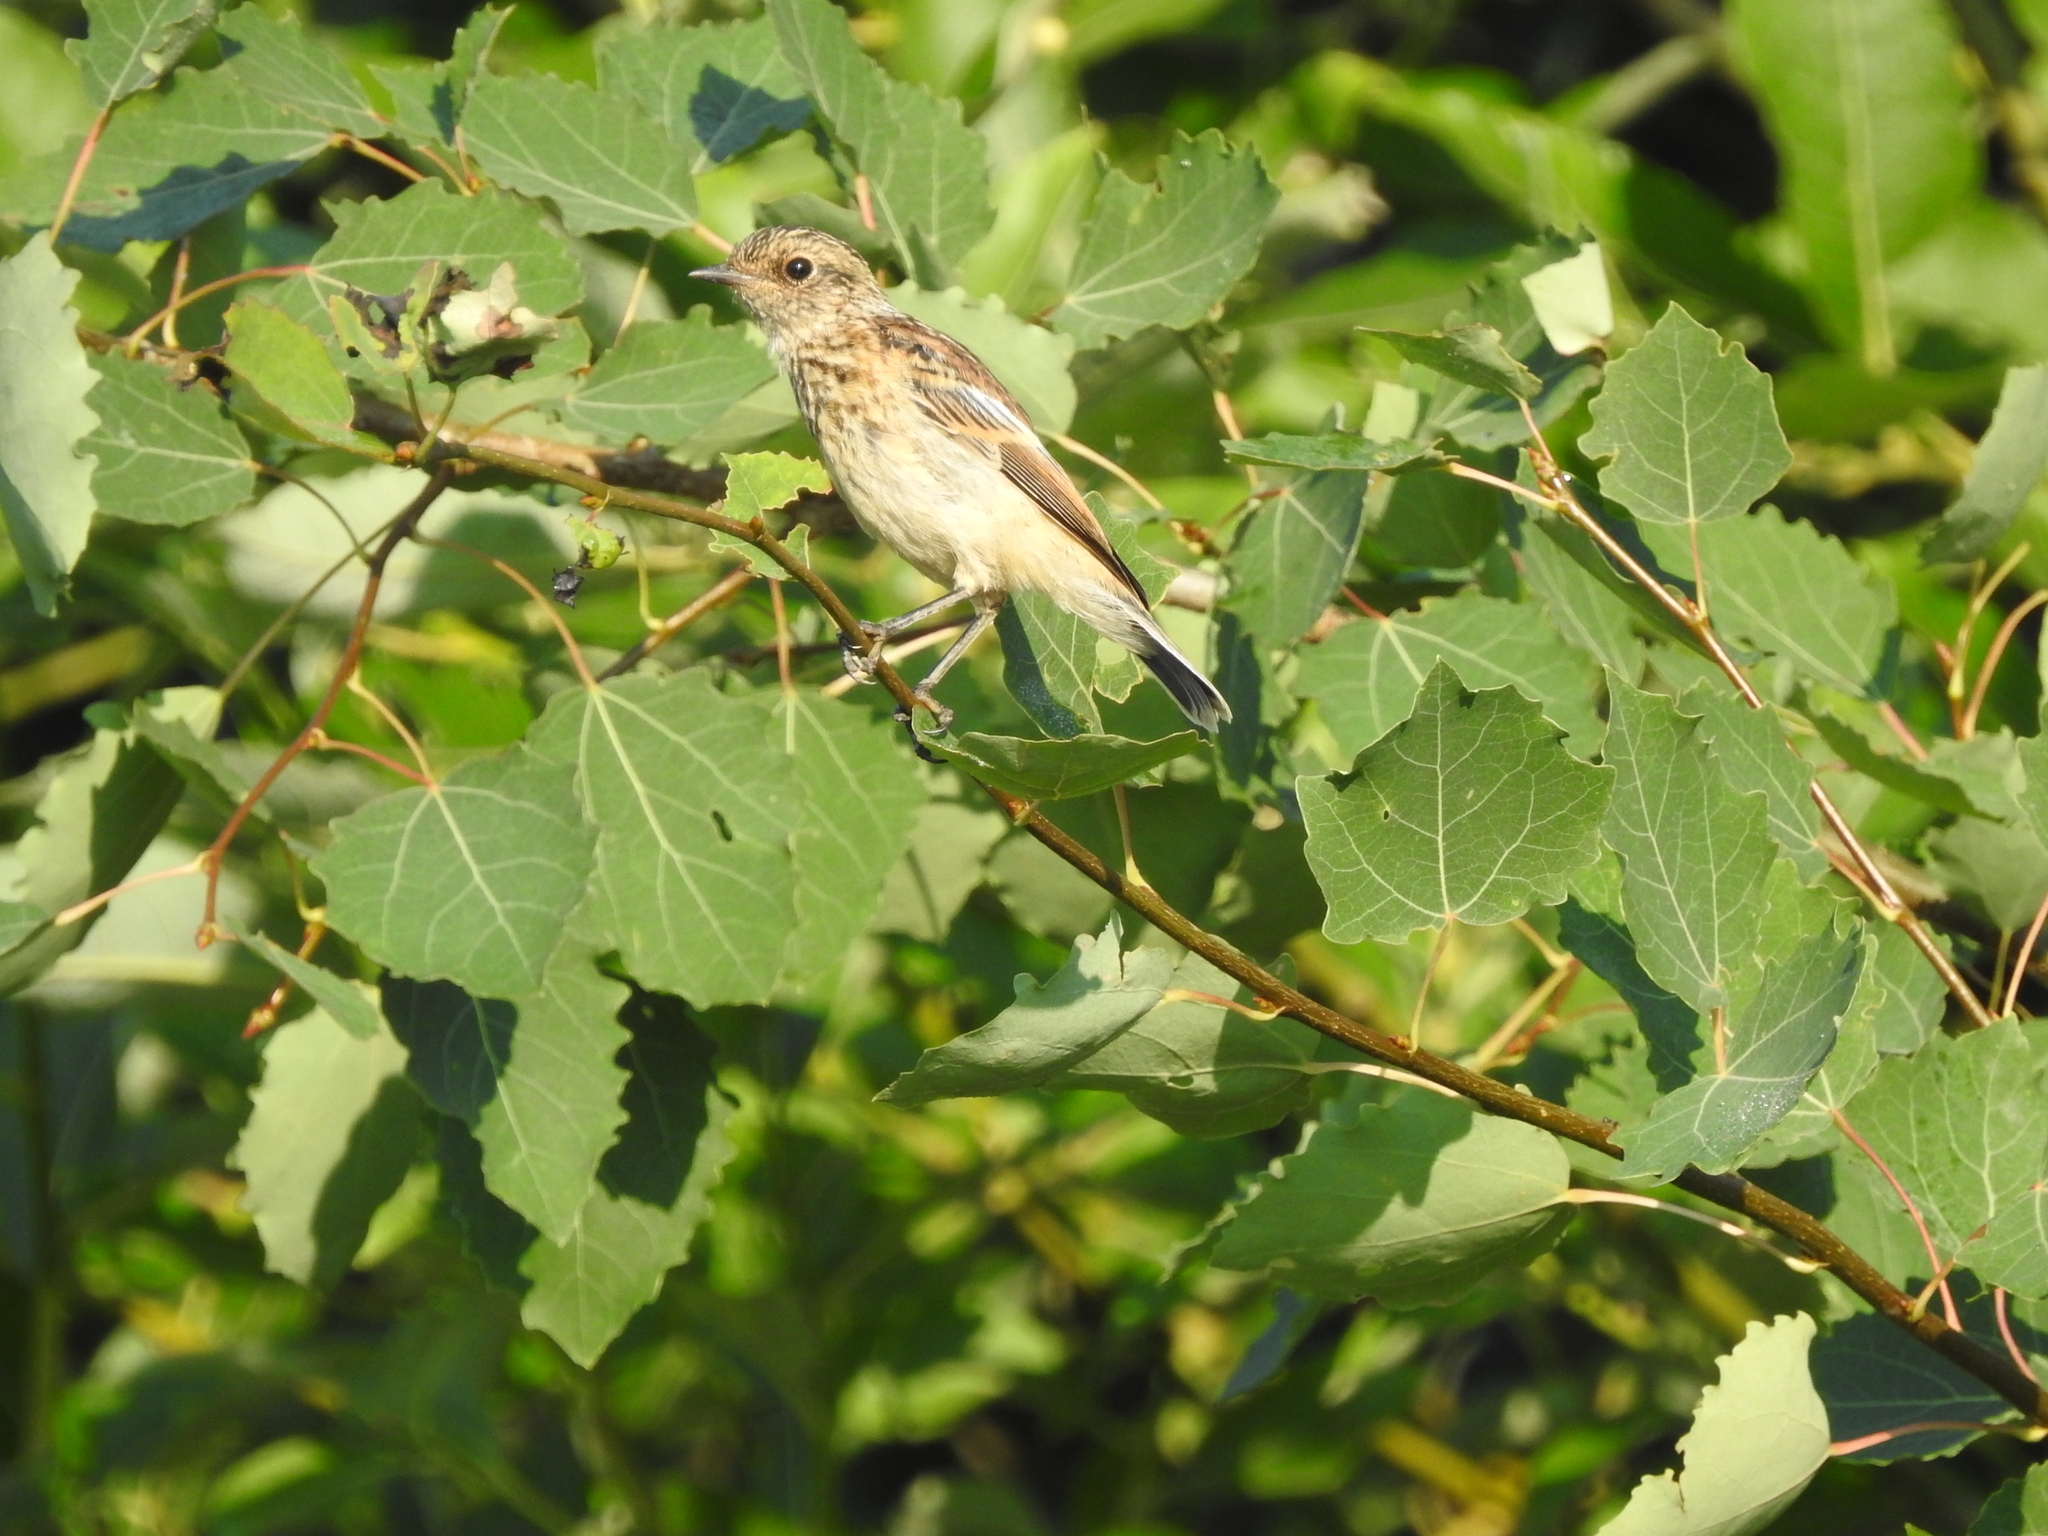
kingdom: Animalia
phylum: Chordata
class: Aves
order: Passeriformes
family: Muscicapidae
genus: Saxicola
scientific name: Saxicola maurus
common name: Siberian stonechat
